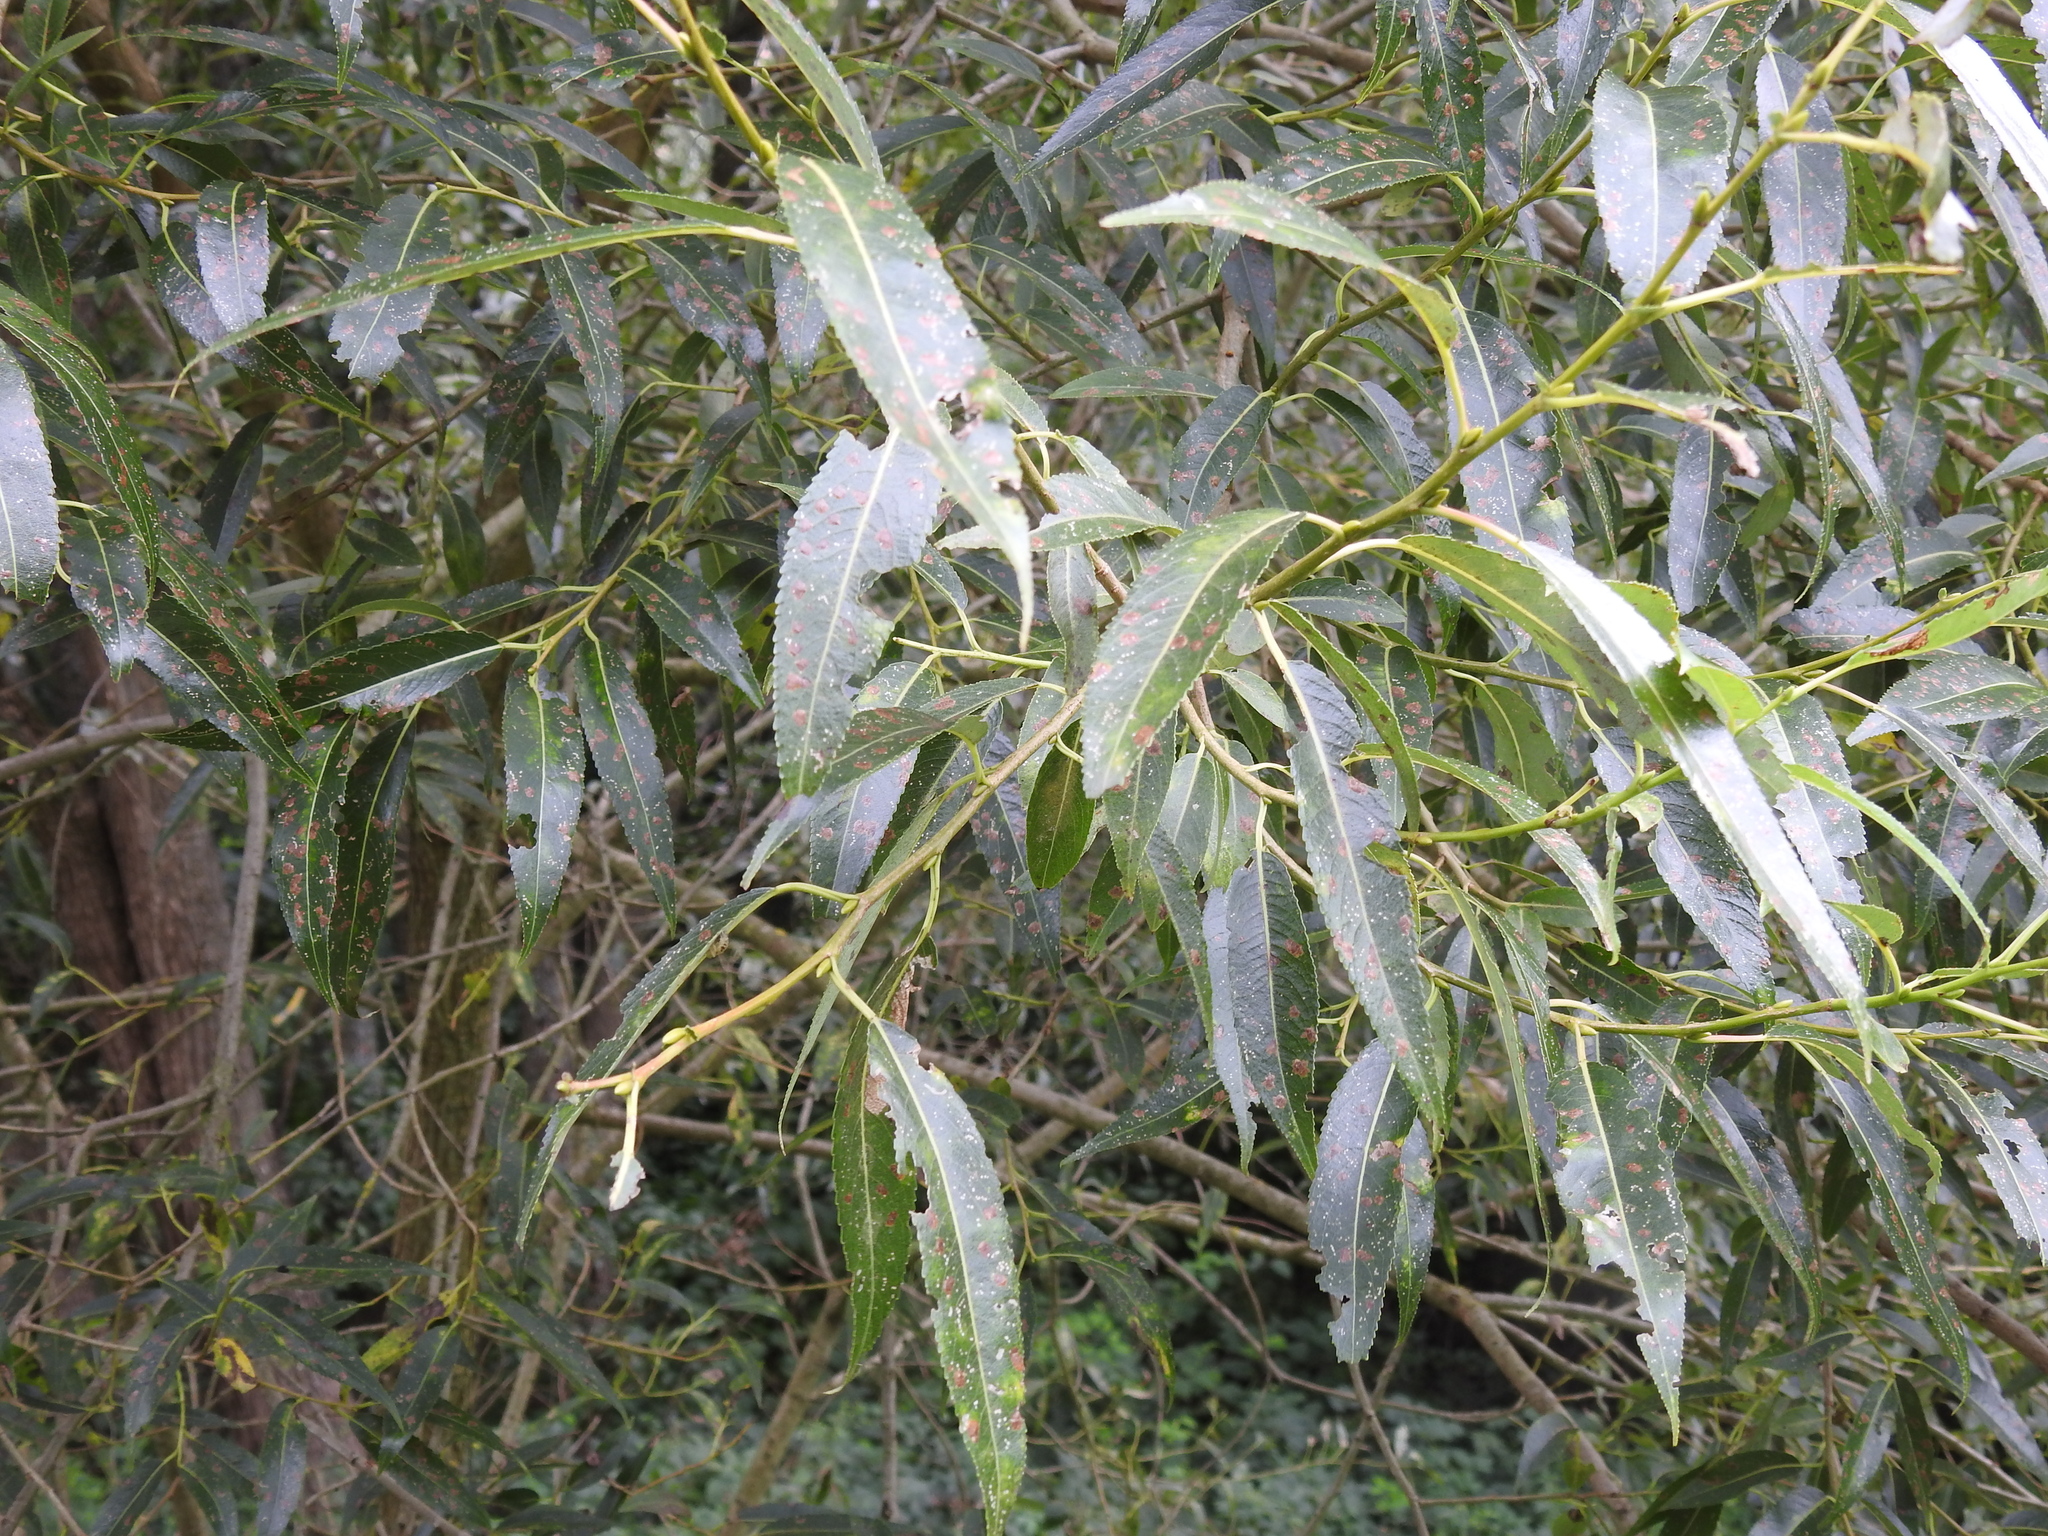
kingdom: Plantae
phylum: Tracheophyta
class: Magnoliopsida
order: Malpighiales
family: Salicaceae
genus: Salix
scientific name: Salix triandra
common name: Almond willow
